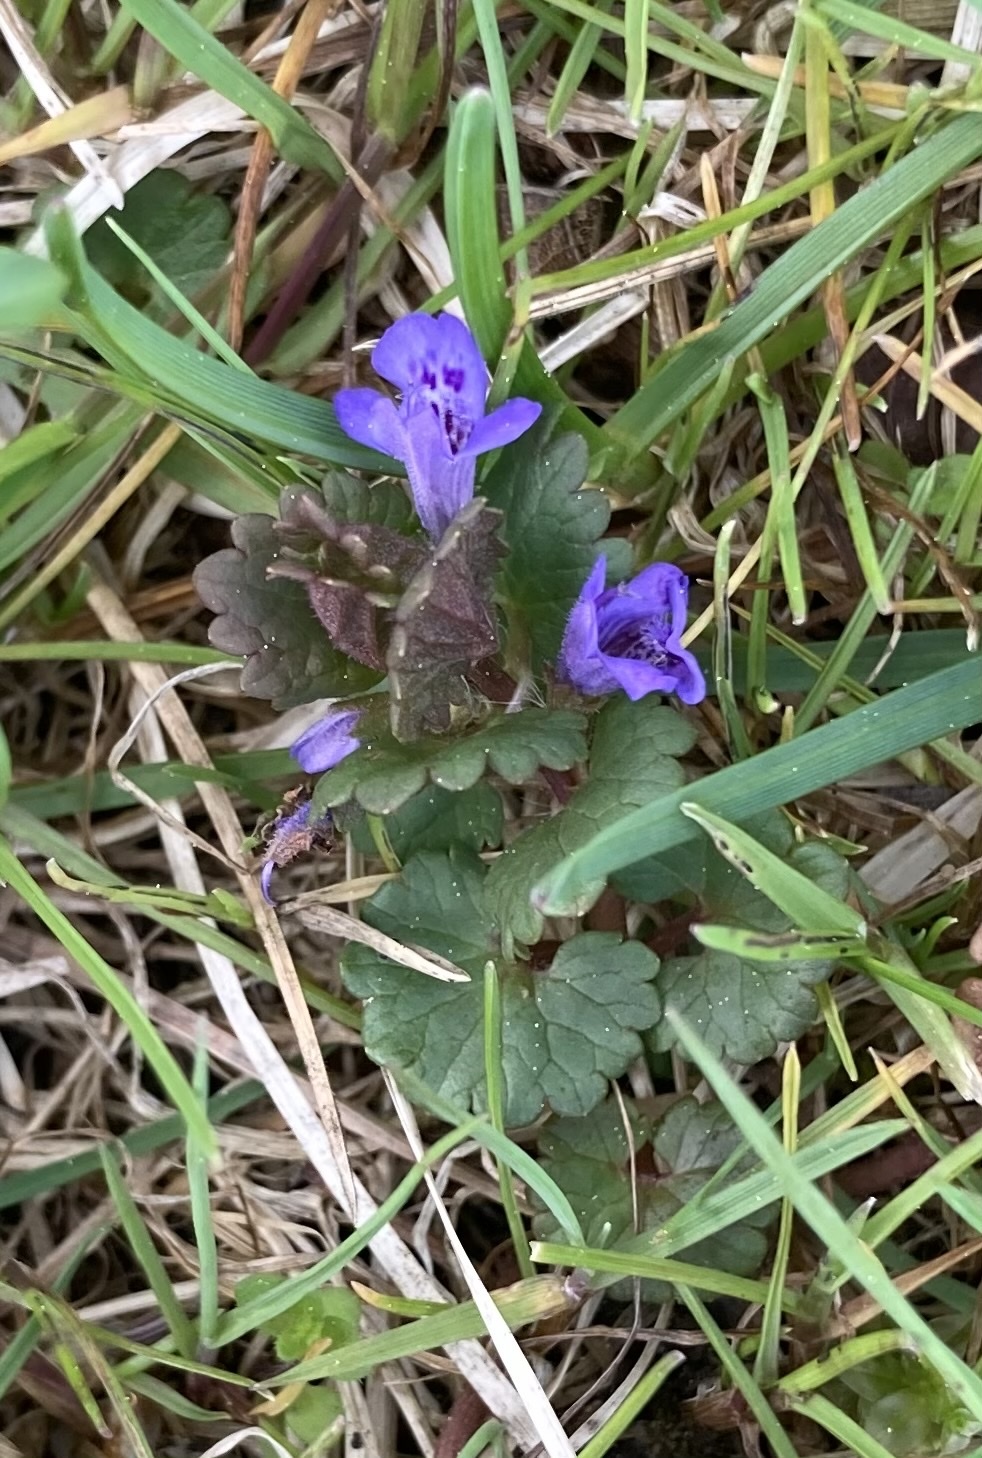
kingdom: Plantae
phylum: Tracheophyta
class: Magnoliopsida
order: Lamiales
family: Lamiaceae
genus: Glechoma
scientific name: Glechoma hederacea
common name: Ground ivy
